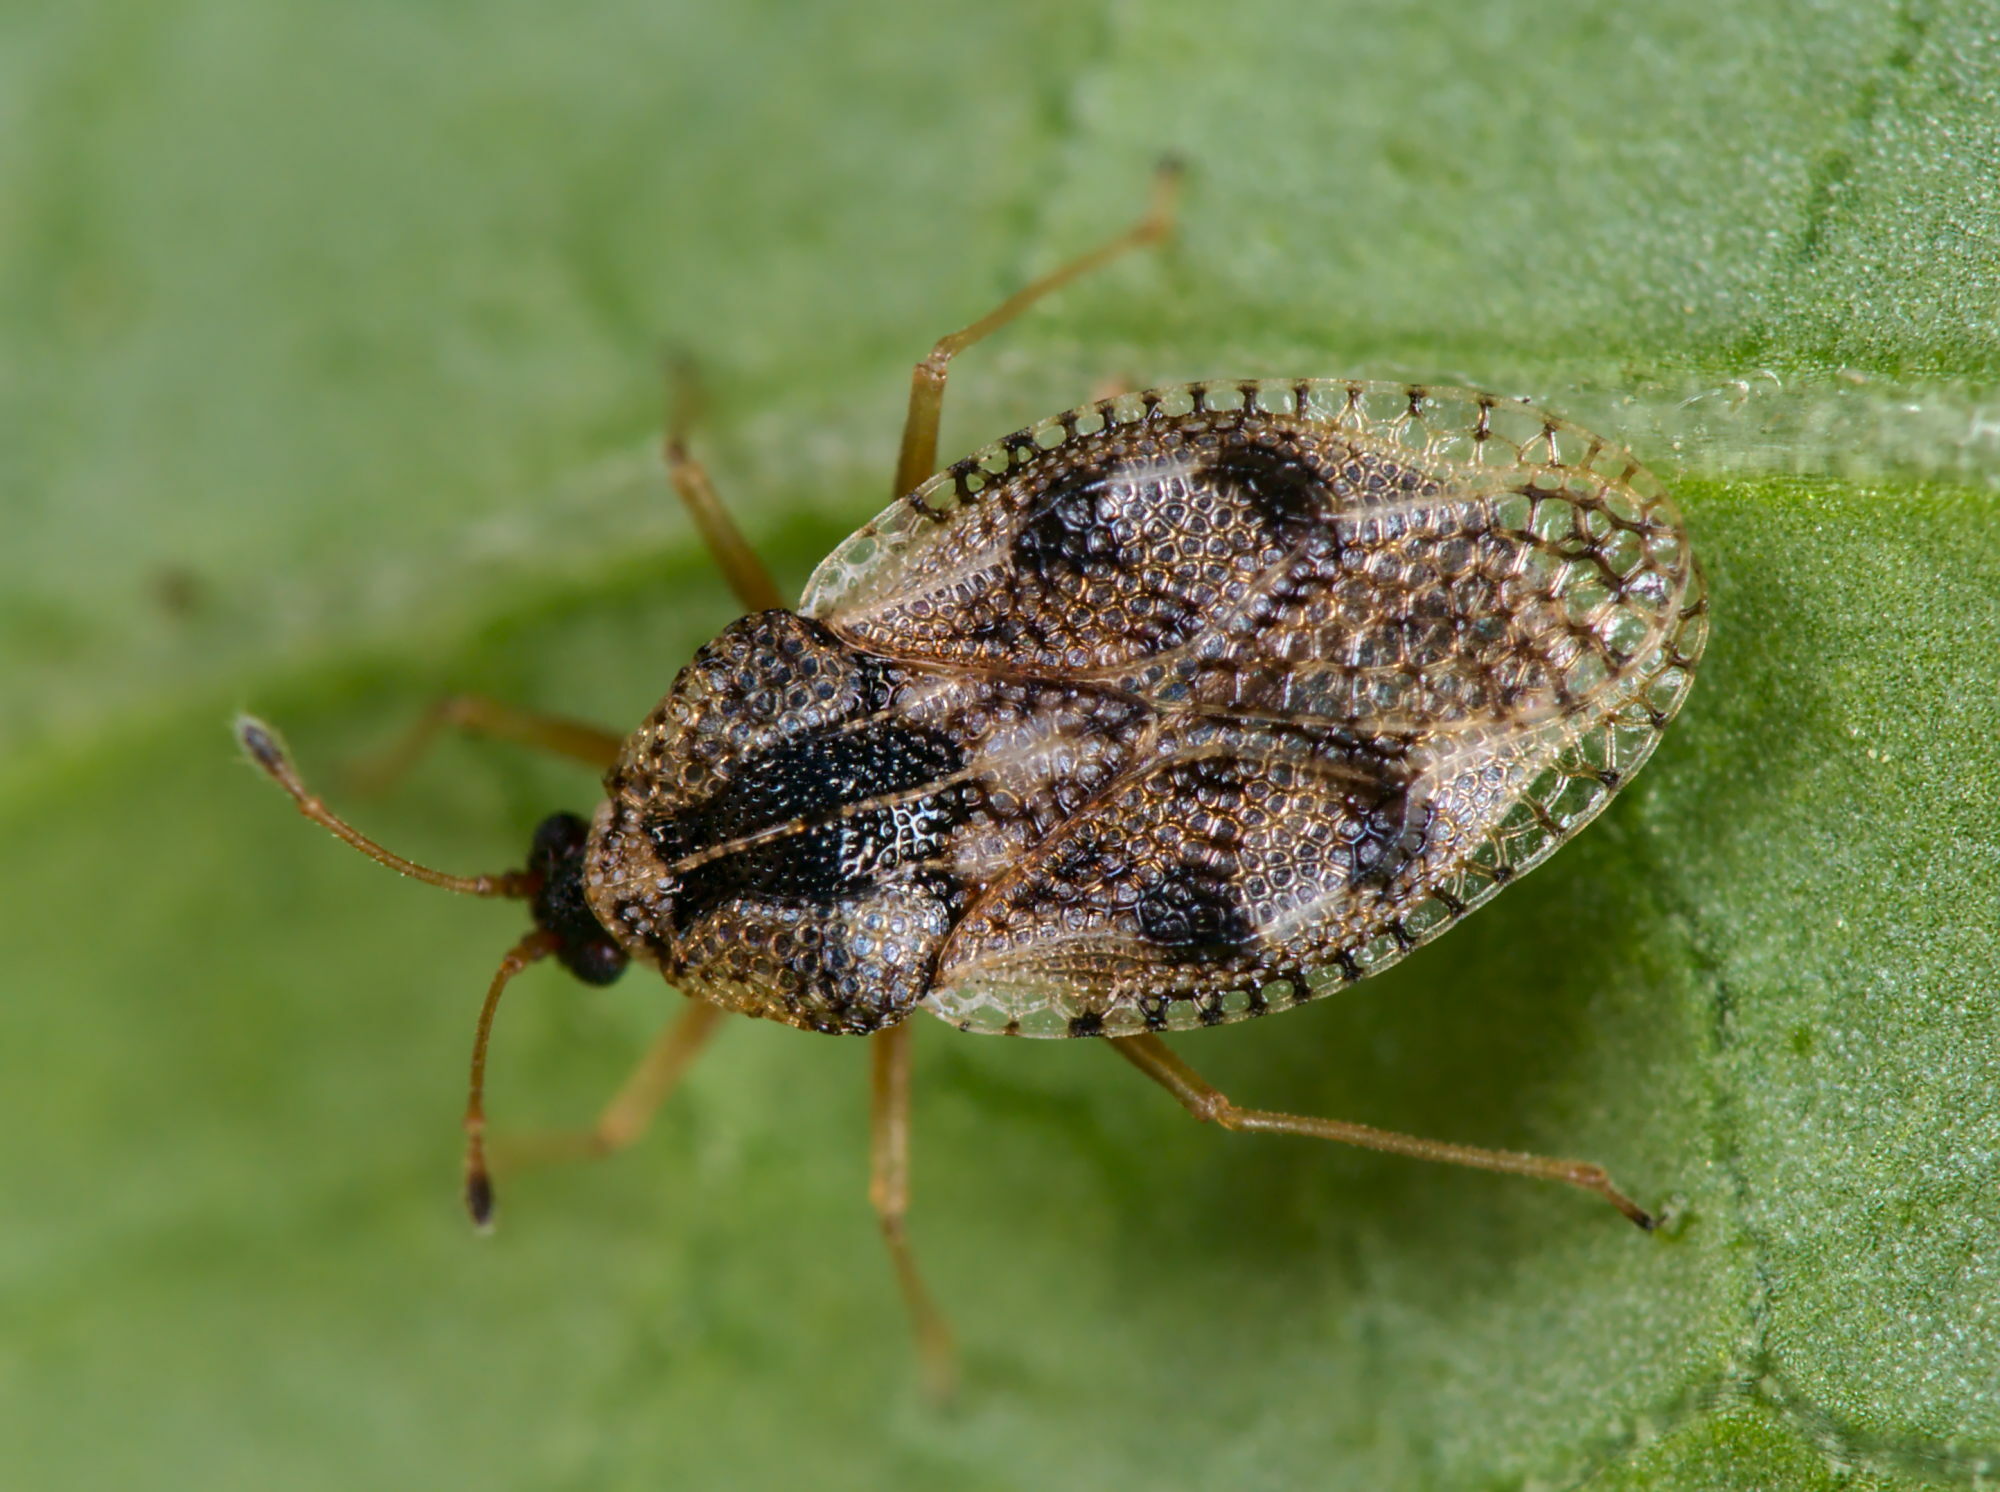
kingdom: Animalia
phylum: Arthropoda
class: Insecta
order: Hemiptera
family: Tingidae
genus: Dictyla
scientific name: Dictyla humuli
